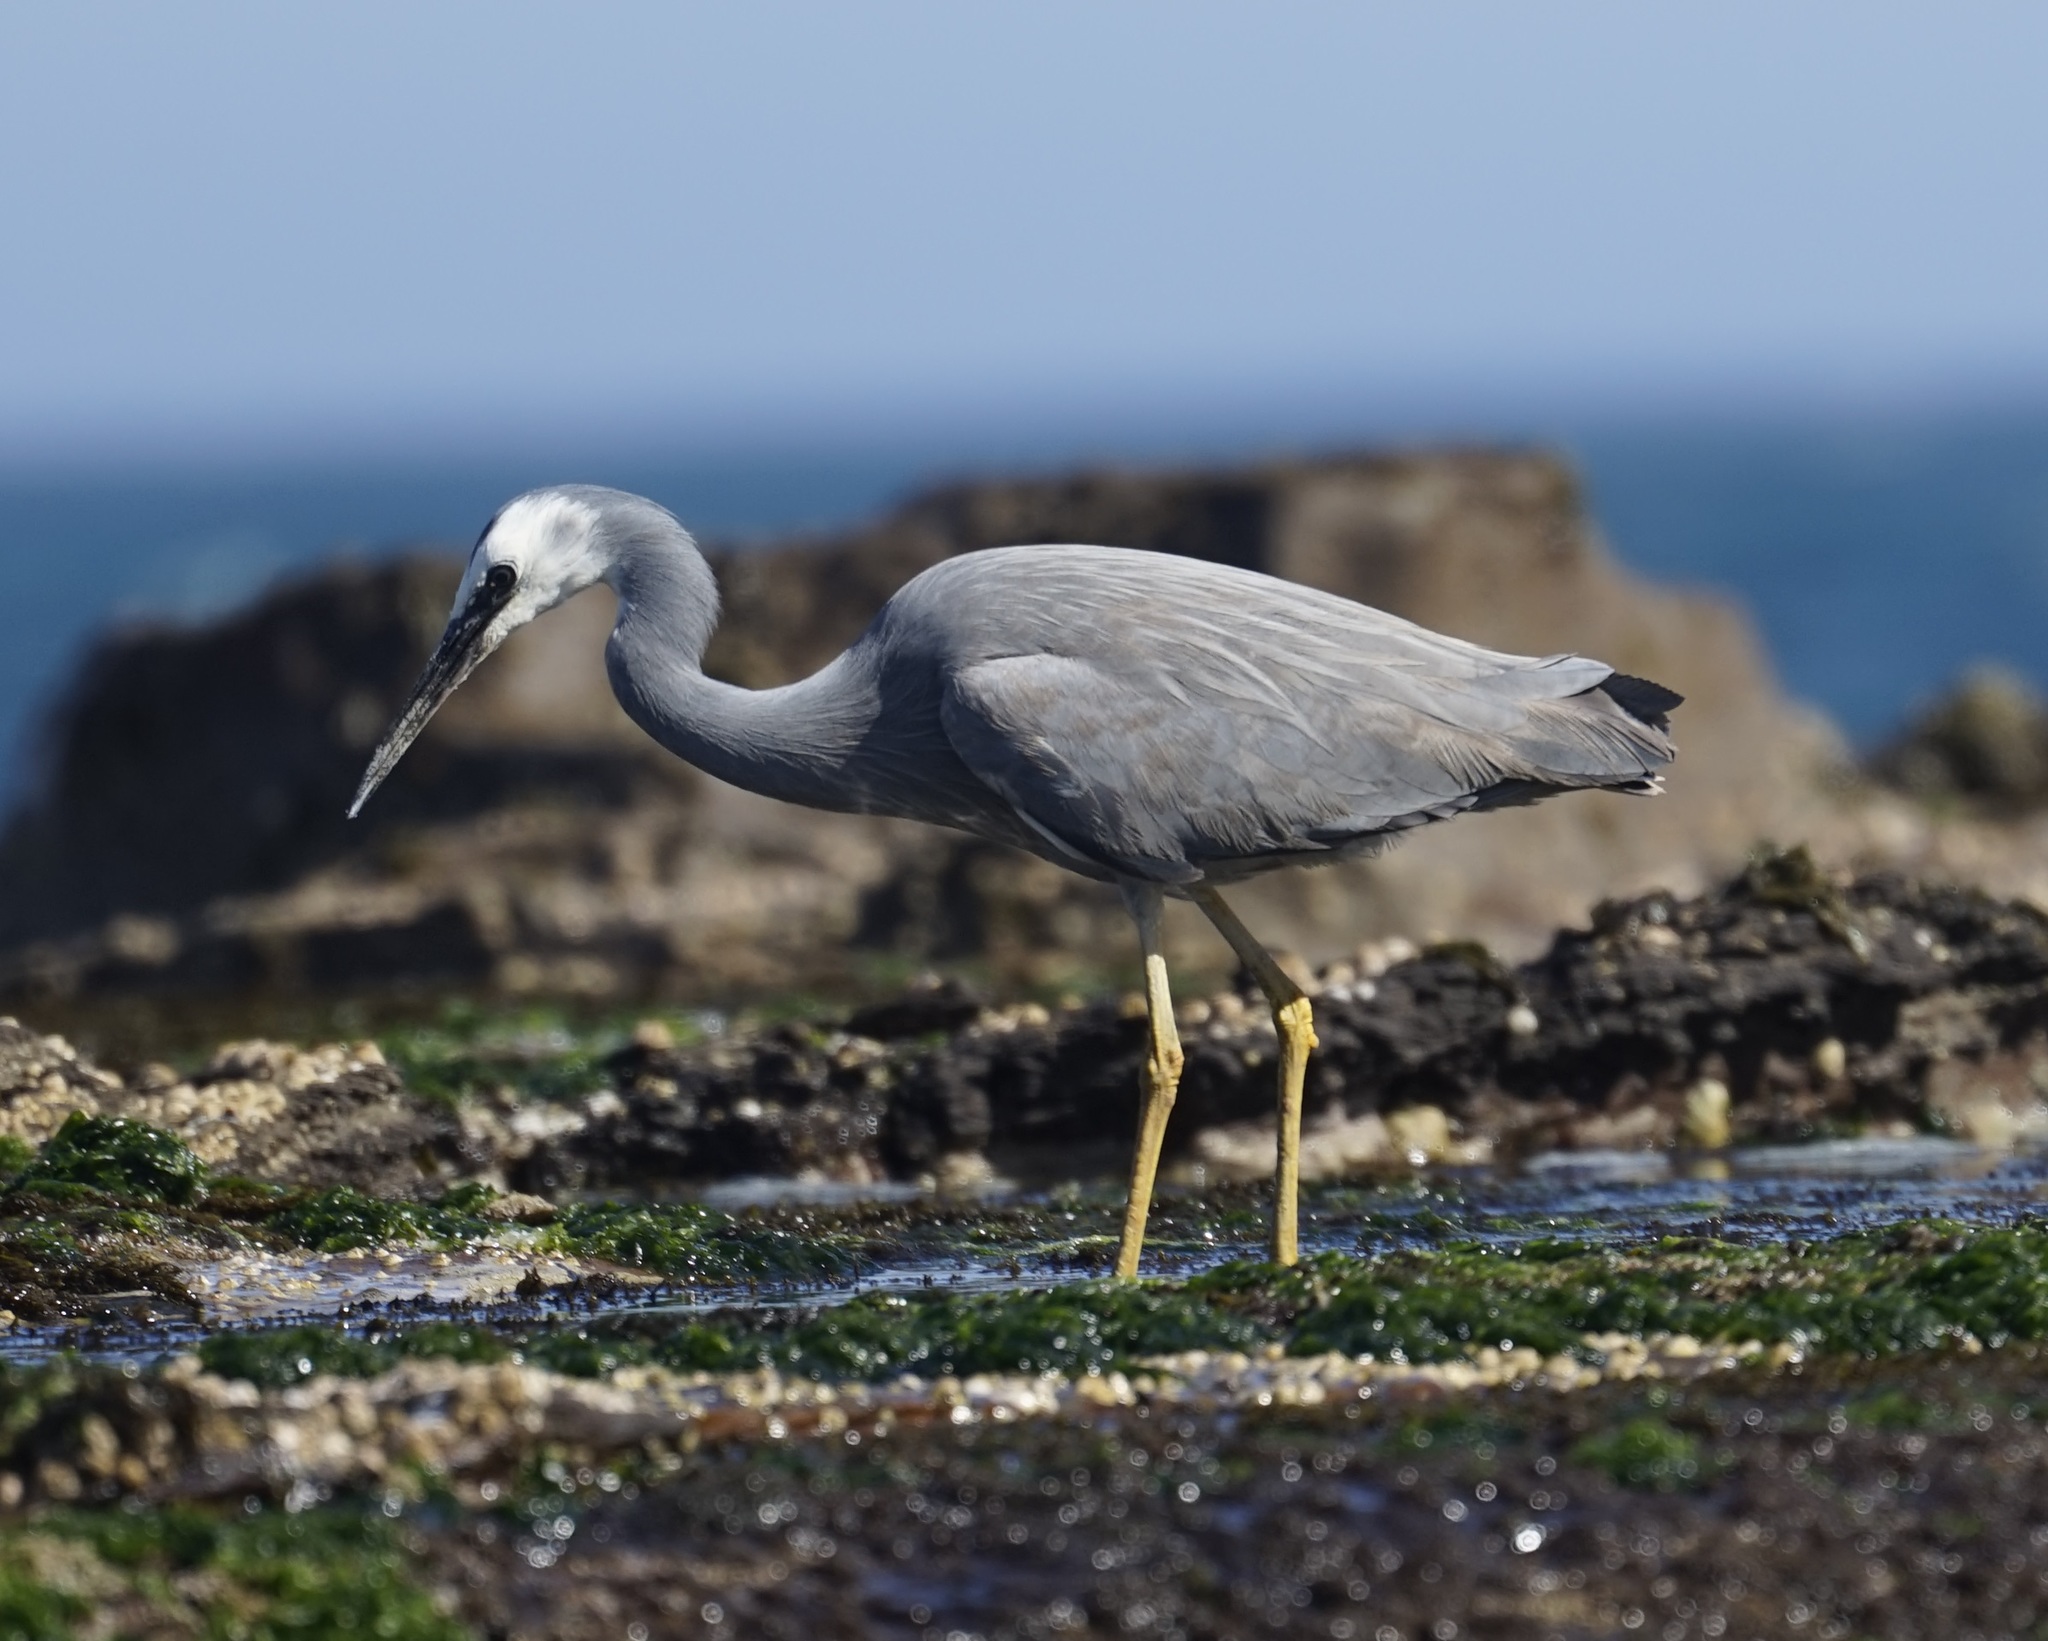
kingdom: Animalia
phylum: Chordata
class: Aves
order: Pelecaniformes
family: Ardeidae
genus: Egretta
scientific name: Egretta novaehollandiae
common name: White-faced heron
